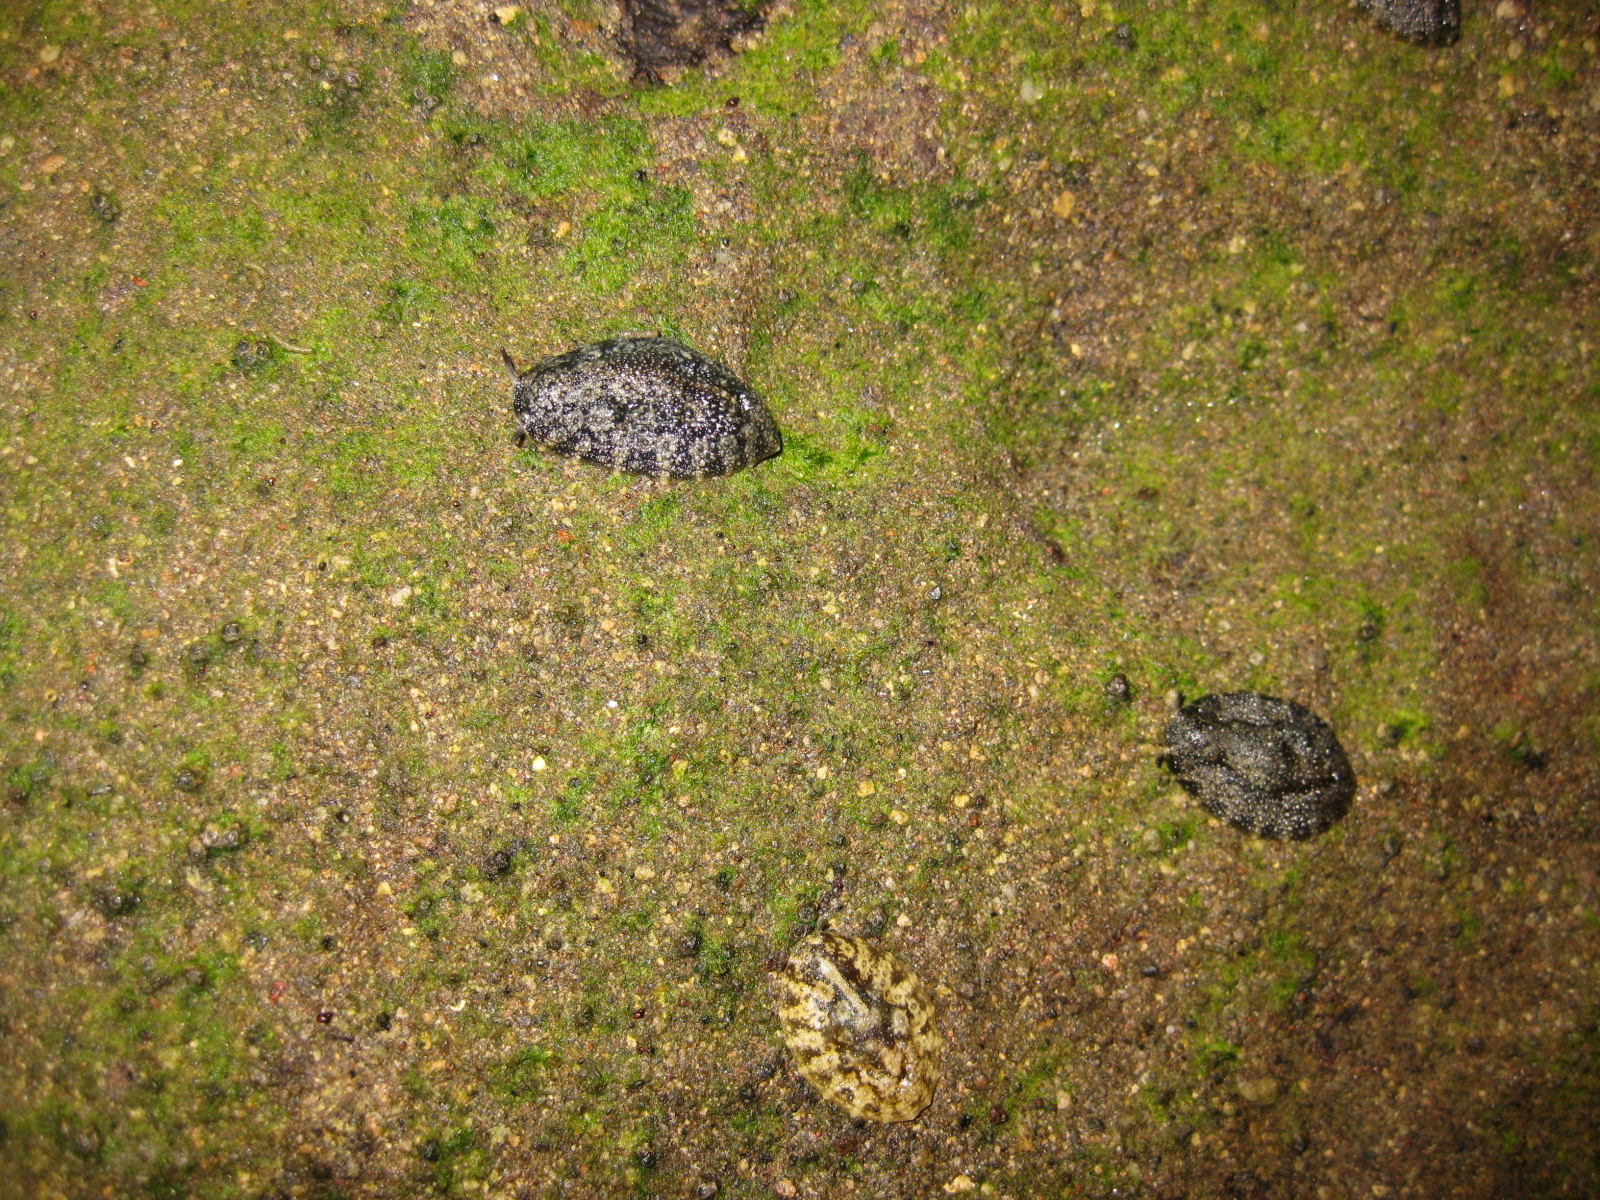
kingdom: Animalia
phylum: Mollusca
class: Gastropoda
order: Systellommatophora
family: Onchidiidae
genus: Onchidella
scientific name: Onchidella nigricans
